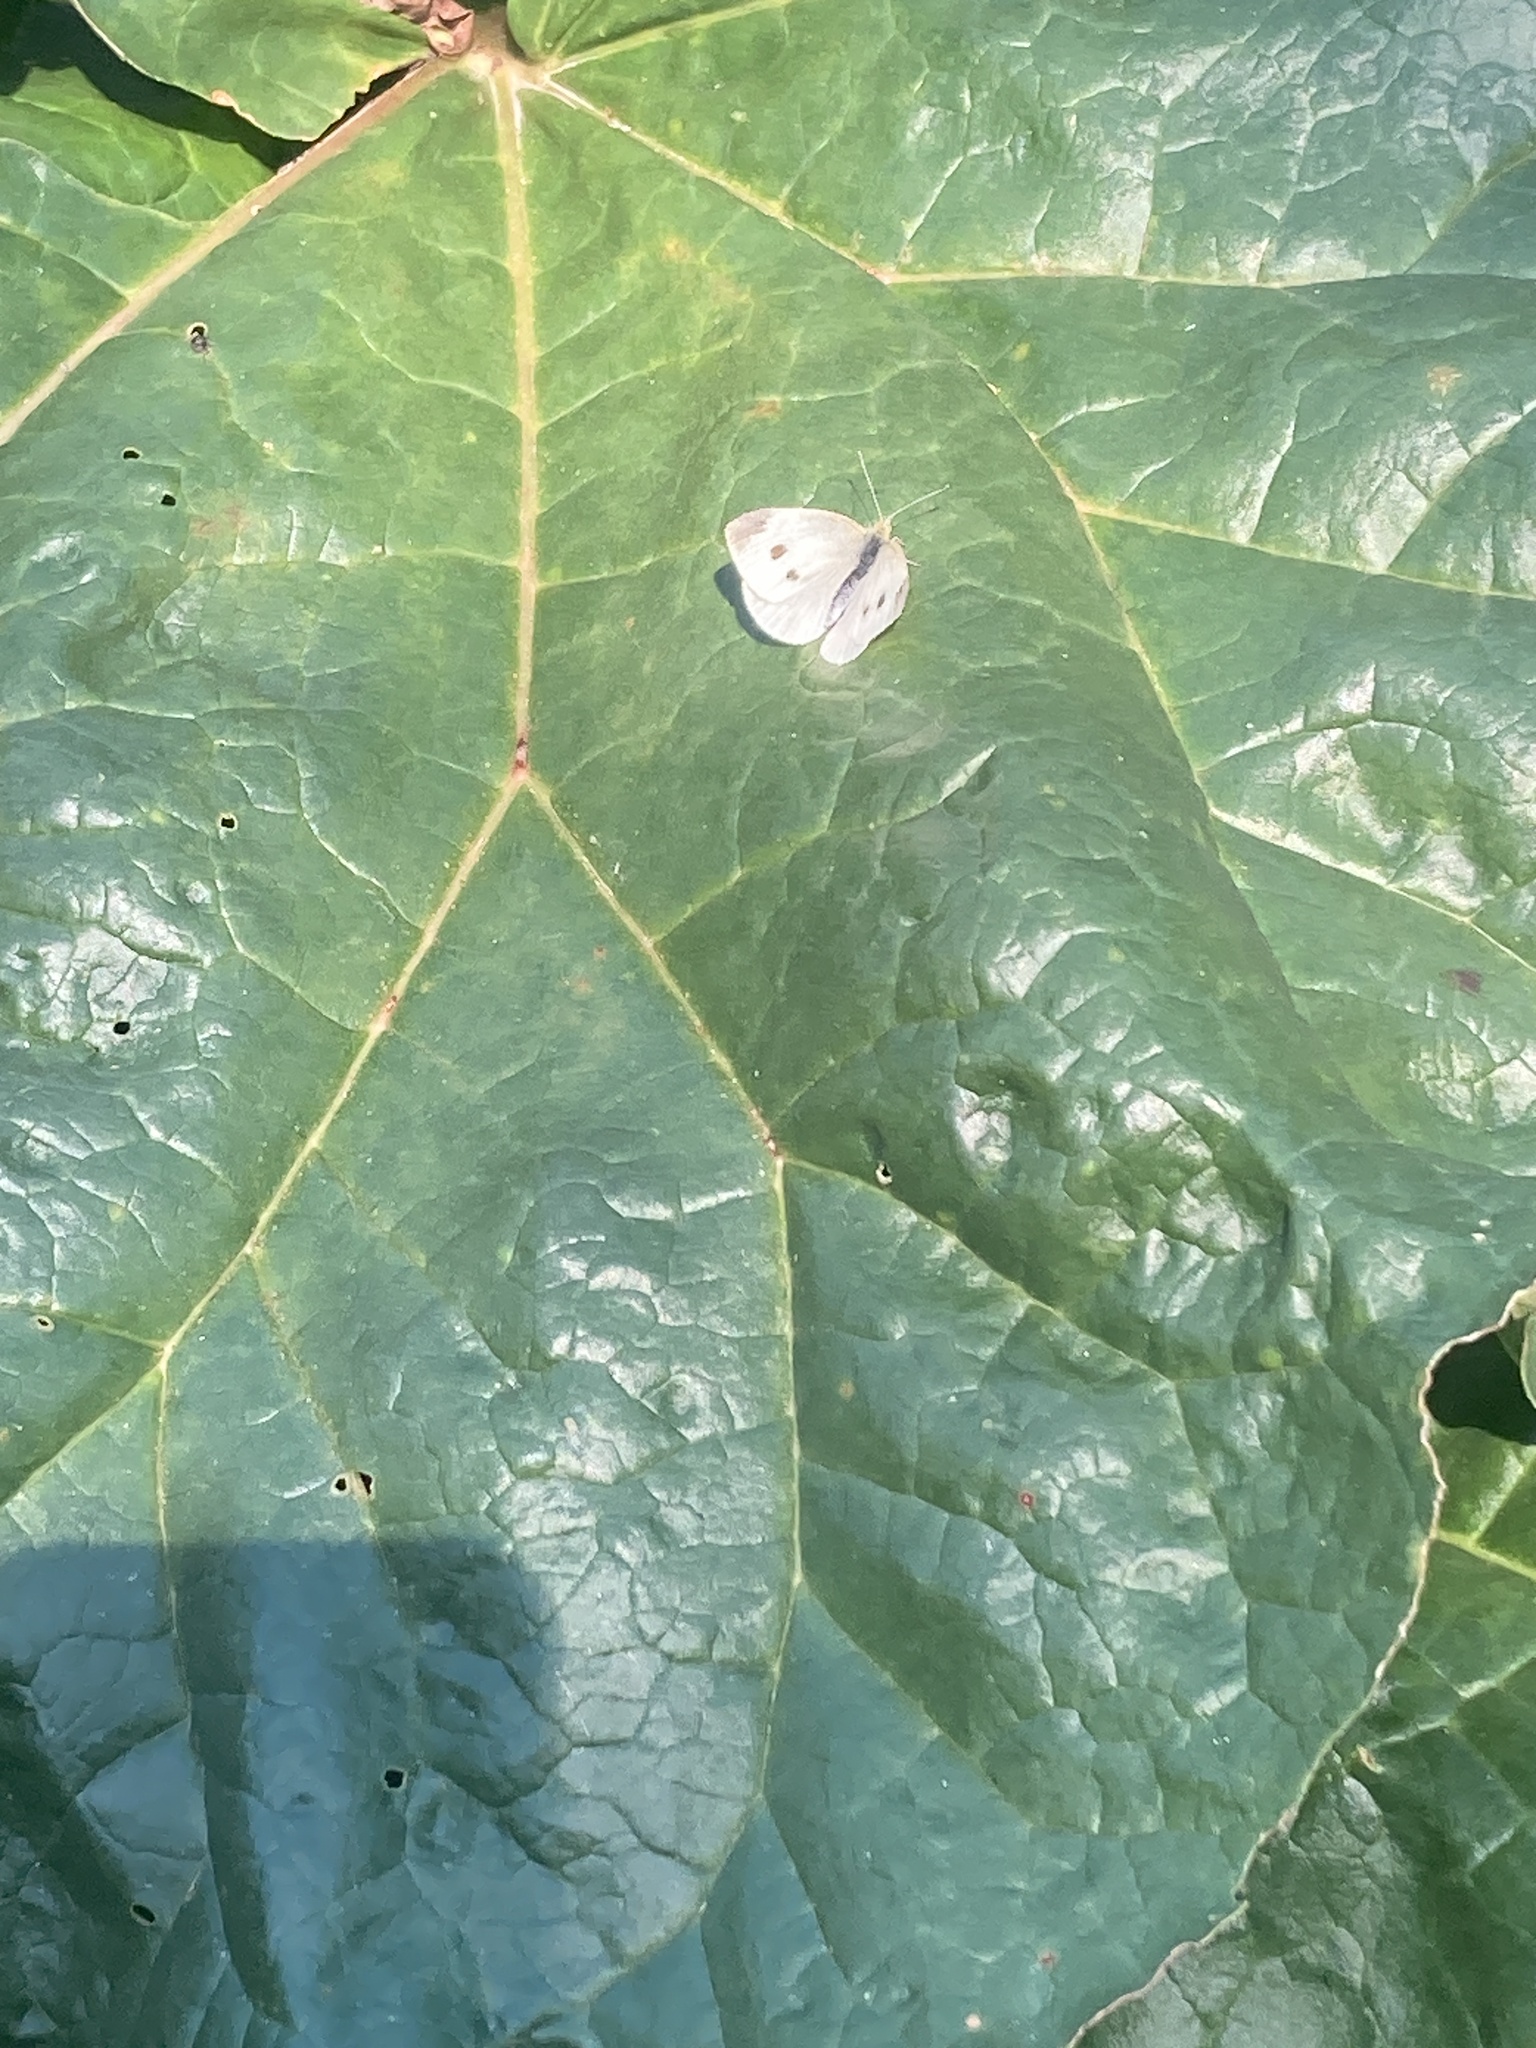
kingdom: Animalia
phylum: Arthropoda
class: Insecta
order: Lepidoptera
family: Pieridae
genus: Pieris
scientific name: Pieris rapae
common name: Small white
